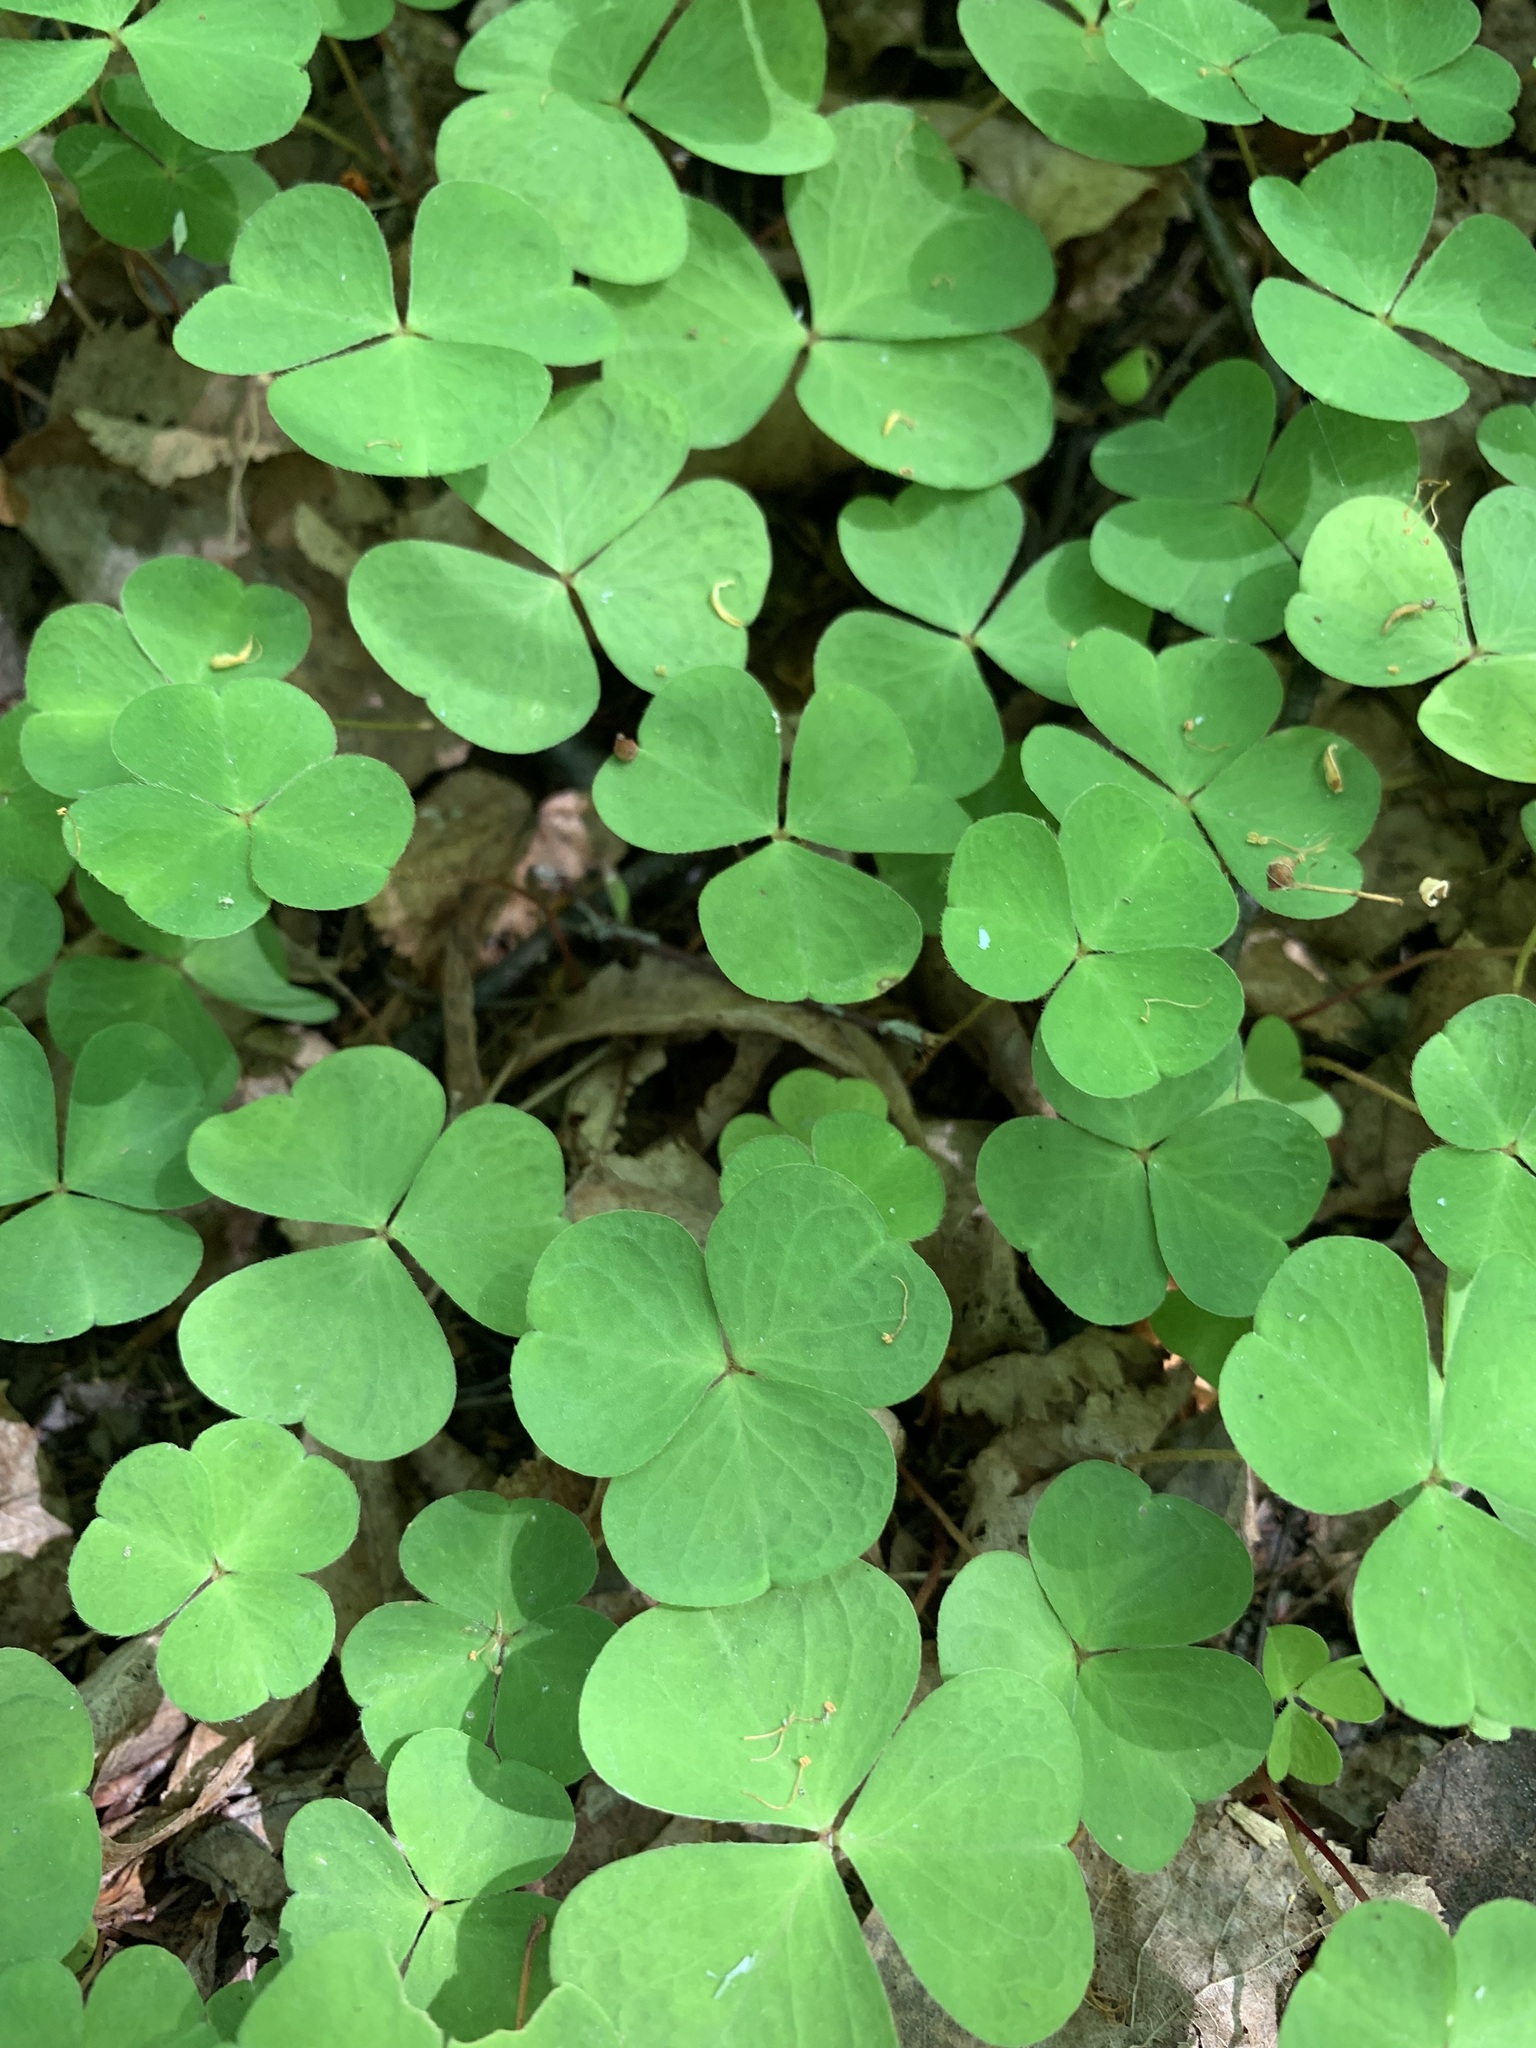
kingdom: Plantae
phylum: Tracheophyta
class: Magnoliopsida
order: Oxalidales
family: Oxalidaceae
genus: Oxalis
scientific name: Oxalis acetosella
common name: Wood-sorrel
